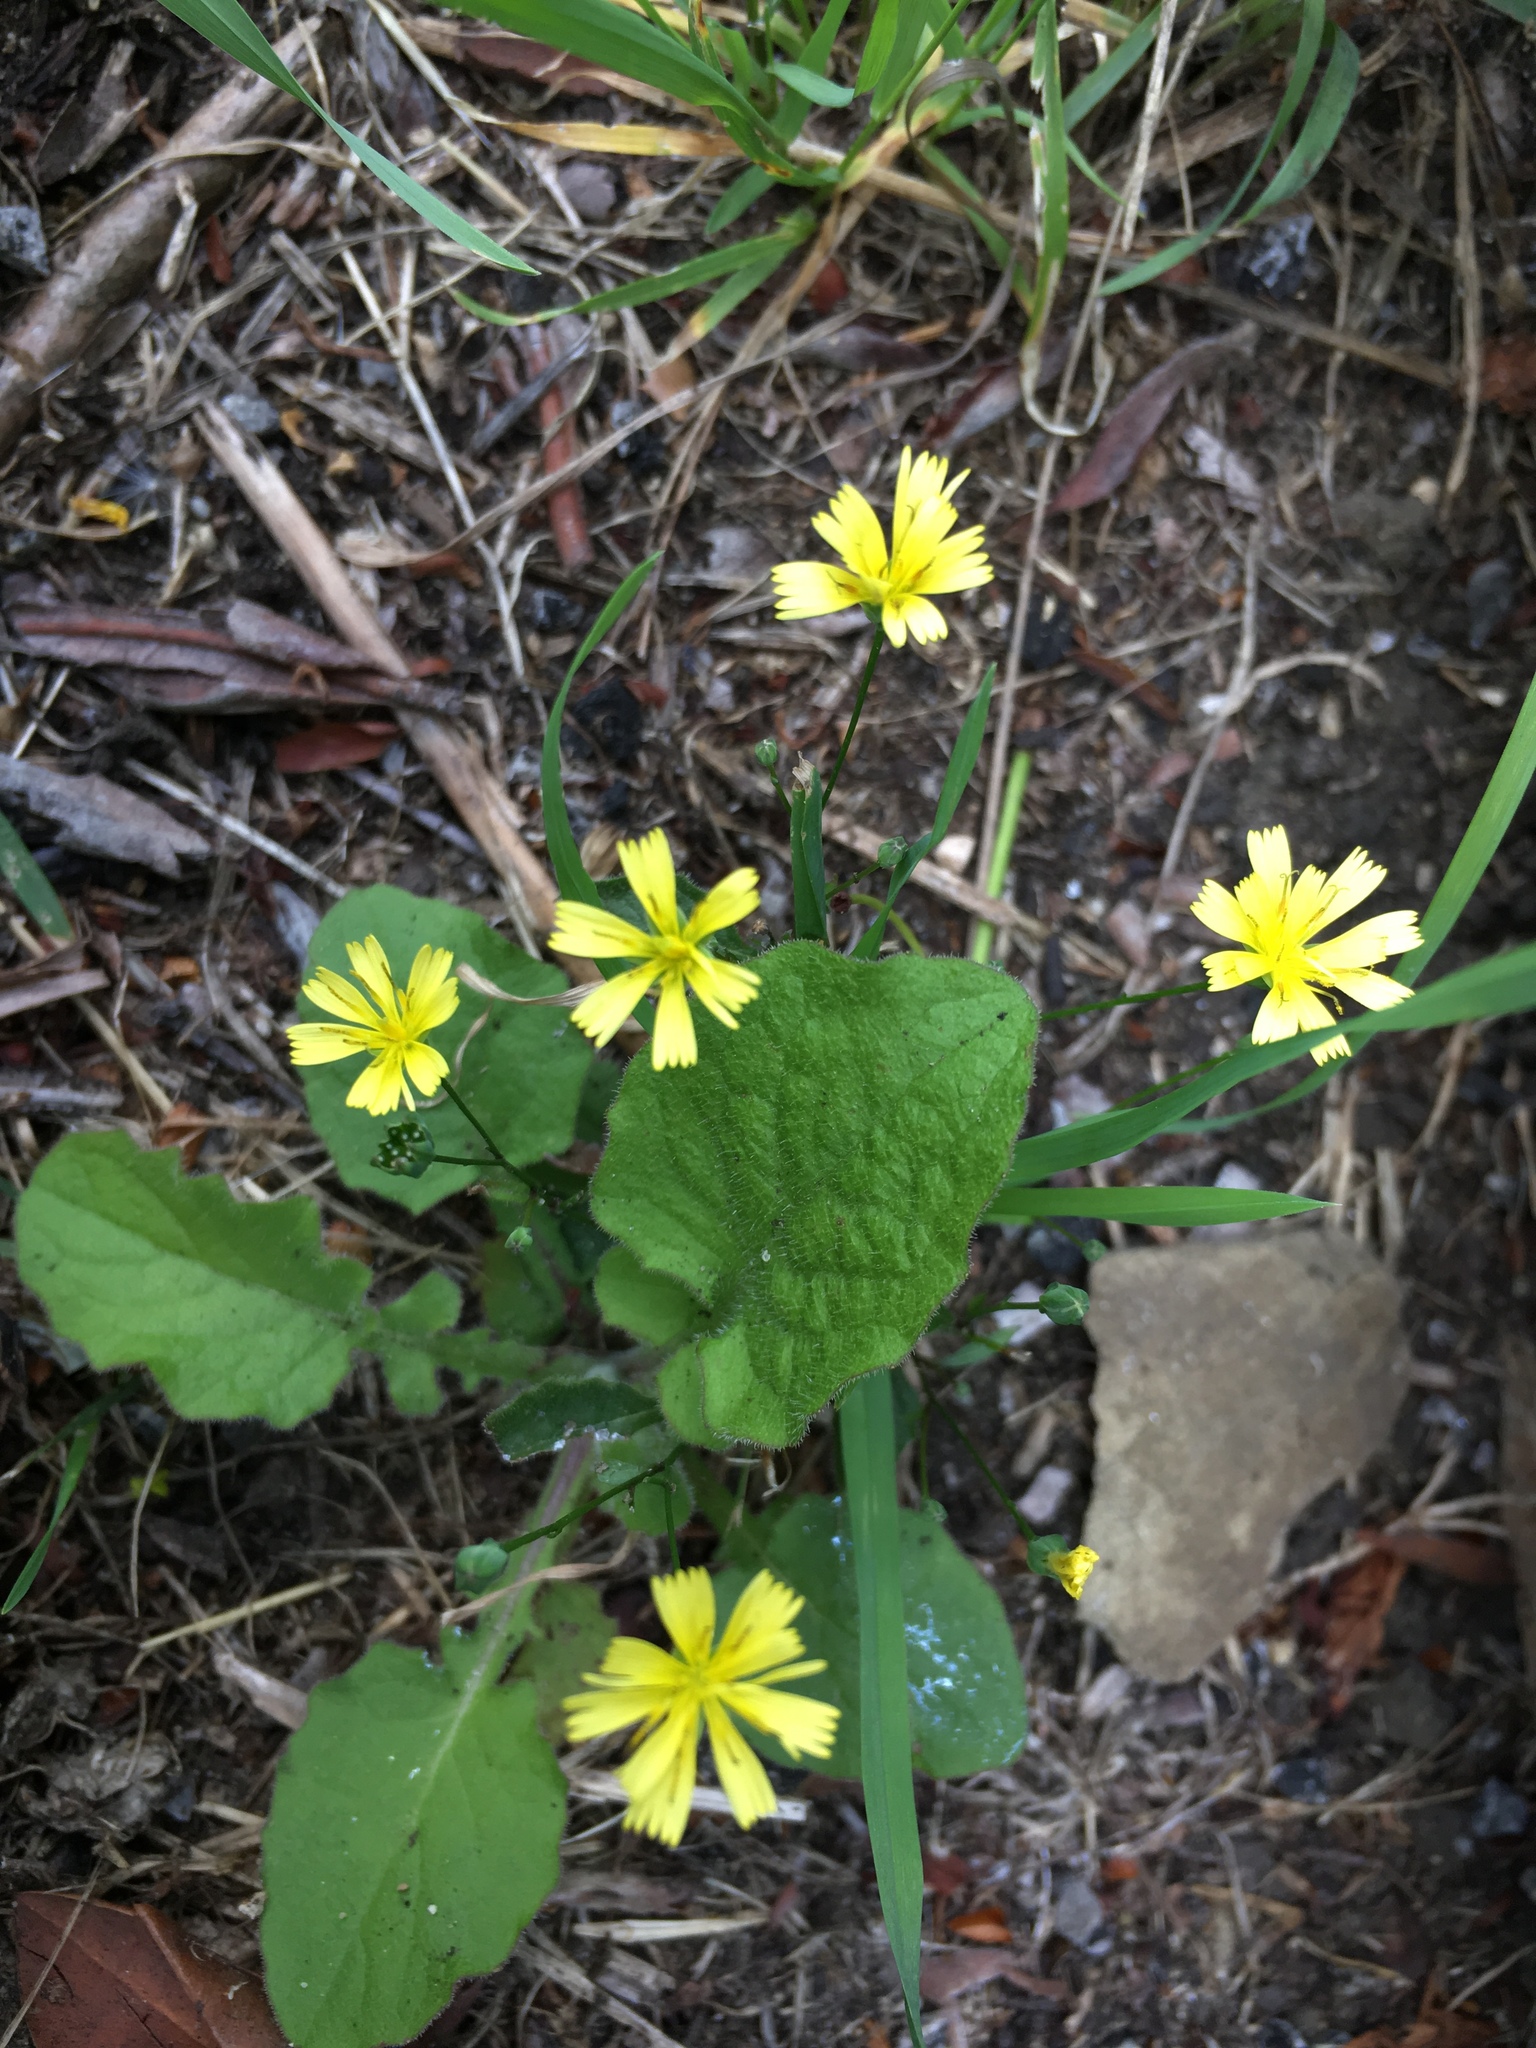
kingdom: Plantae
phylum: Tracheophyta
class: Magnoliopsida
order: Asterales
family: Asteraceae
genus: Lapsana
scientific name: Lapsana communis
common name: Nipplewort
